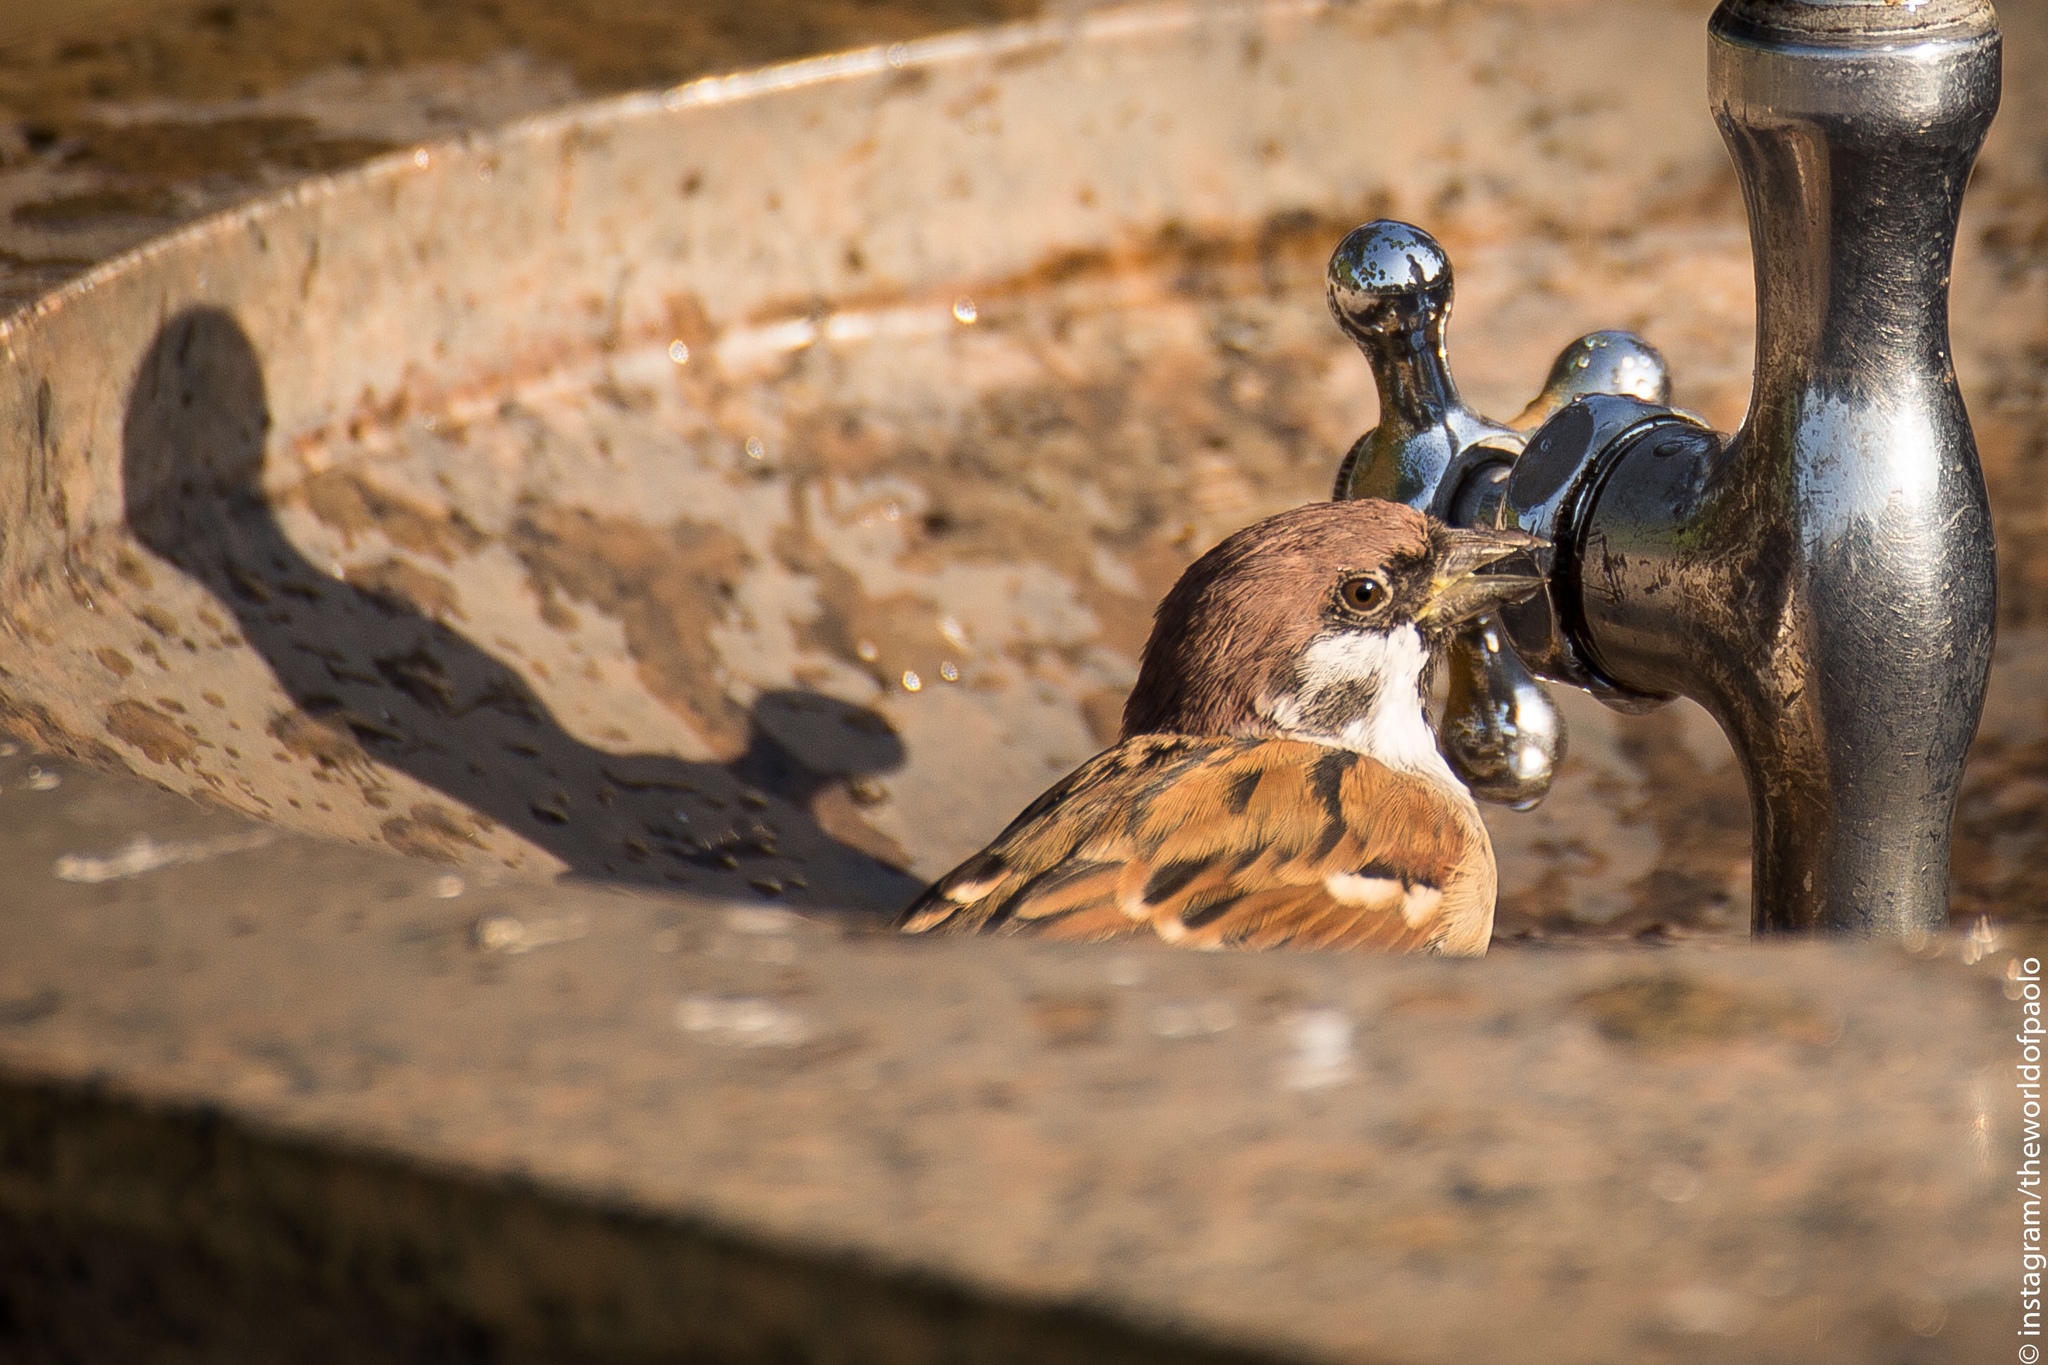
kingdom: Animalia
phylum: Chordata
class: Aves
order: Passeriformes
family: Passeridae
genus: Passer
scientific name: Passer montanus
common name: Eurasian tree sparrow
